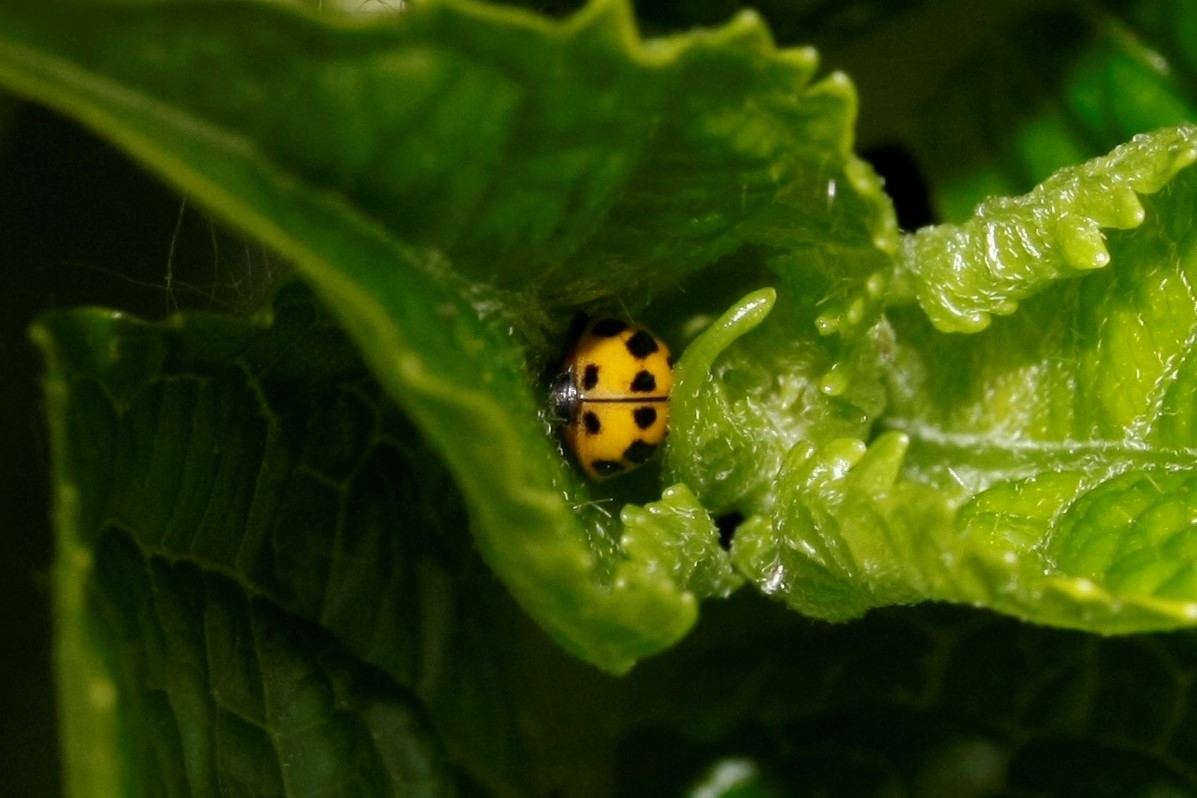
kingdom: Animalia
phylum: Arthropoda
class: Insecta
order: Coleoptera
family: Coccinellidae
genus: Propylaea
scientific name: Propylaea quatuordecimpunctata
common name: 14-spotted ladybird beetle
